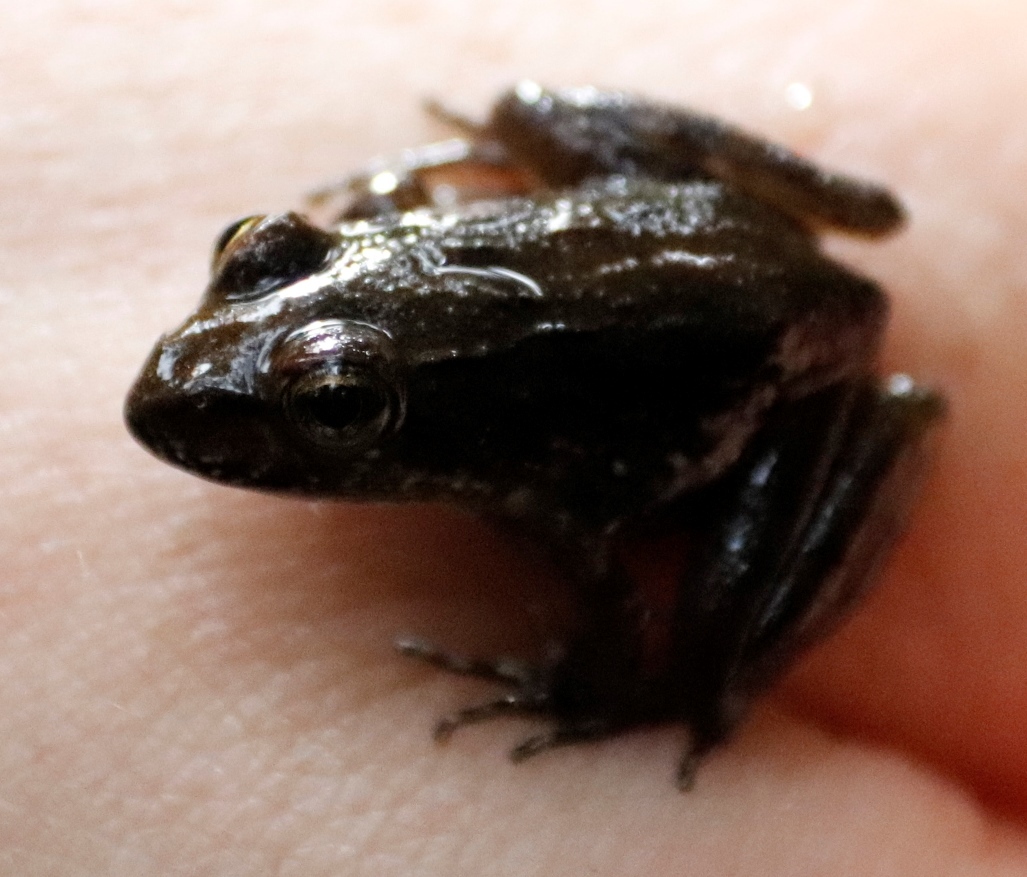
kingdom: Animalia
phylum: Chordata
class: Amphibia
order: Anura
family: Pyxicephalidae
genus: Amietia
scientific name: Amietia fuscigula
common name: Cape rana
